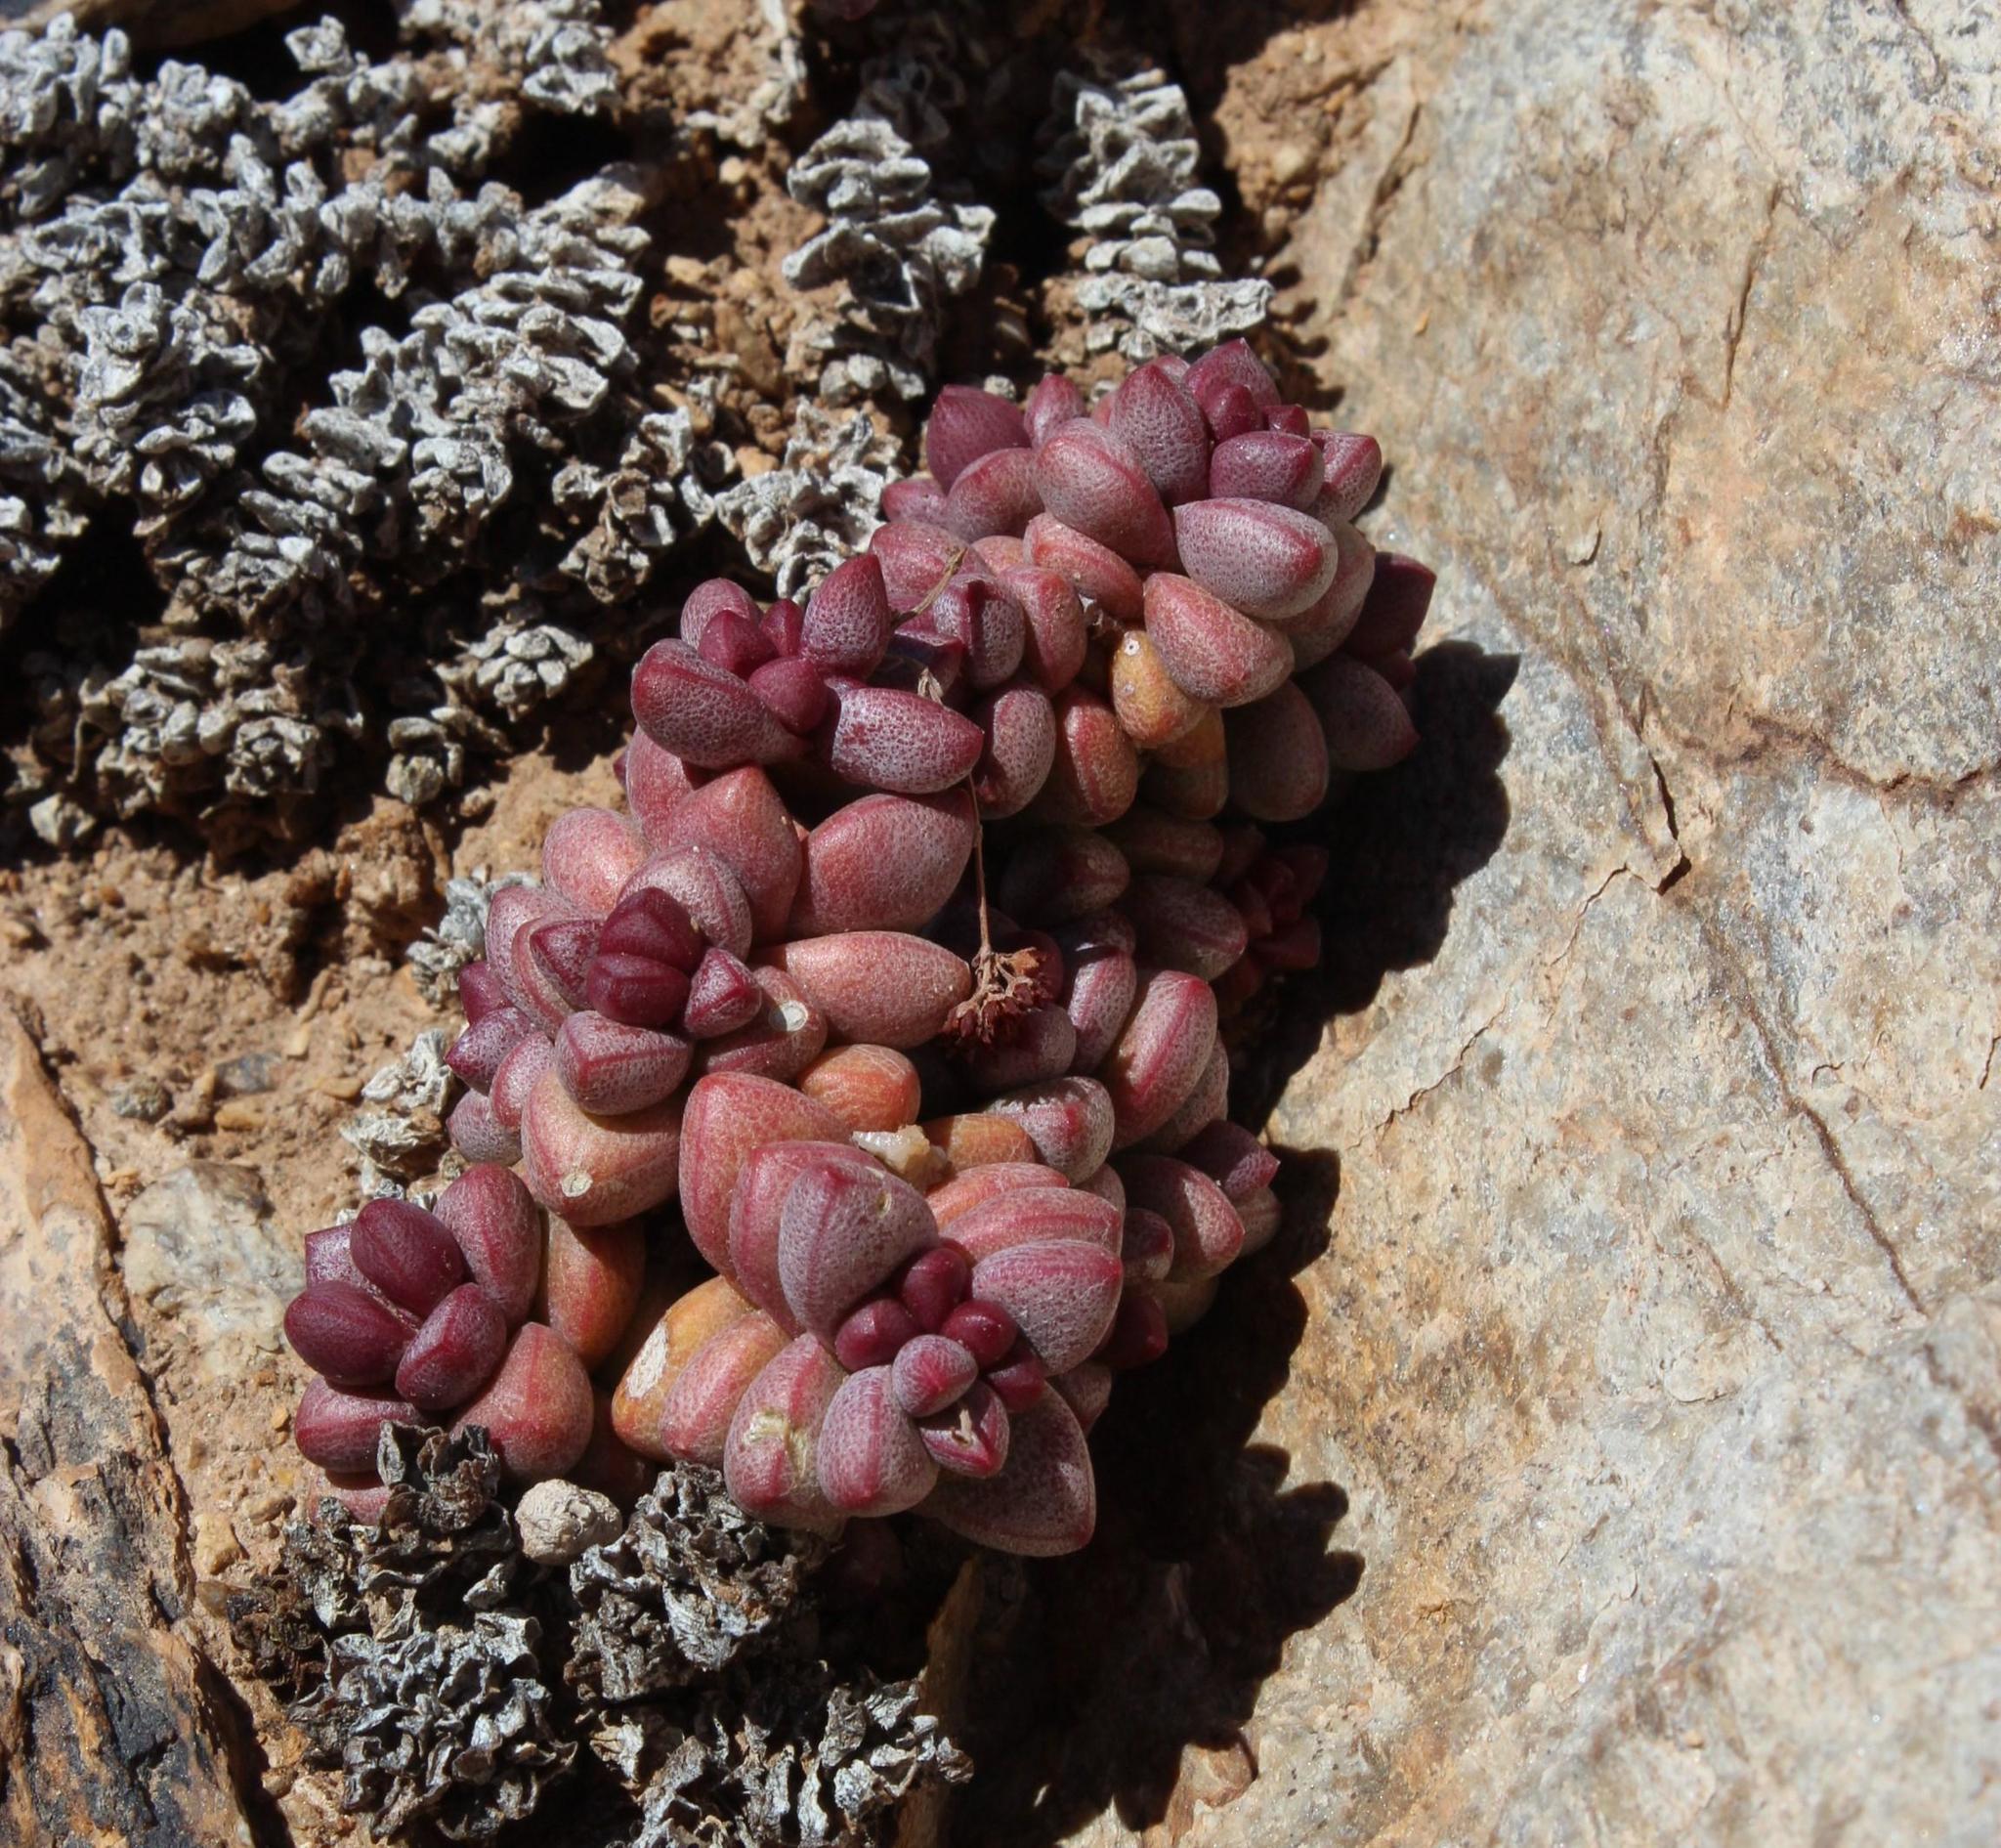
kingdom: Plantae
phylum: Tracheophyta
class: Magnoliopsida
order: Saxifragales
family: Crassulaceae
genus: Crassula
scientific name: Crassula elegans
